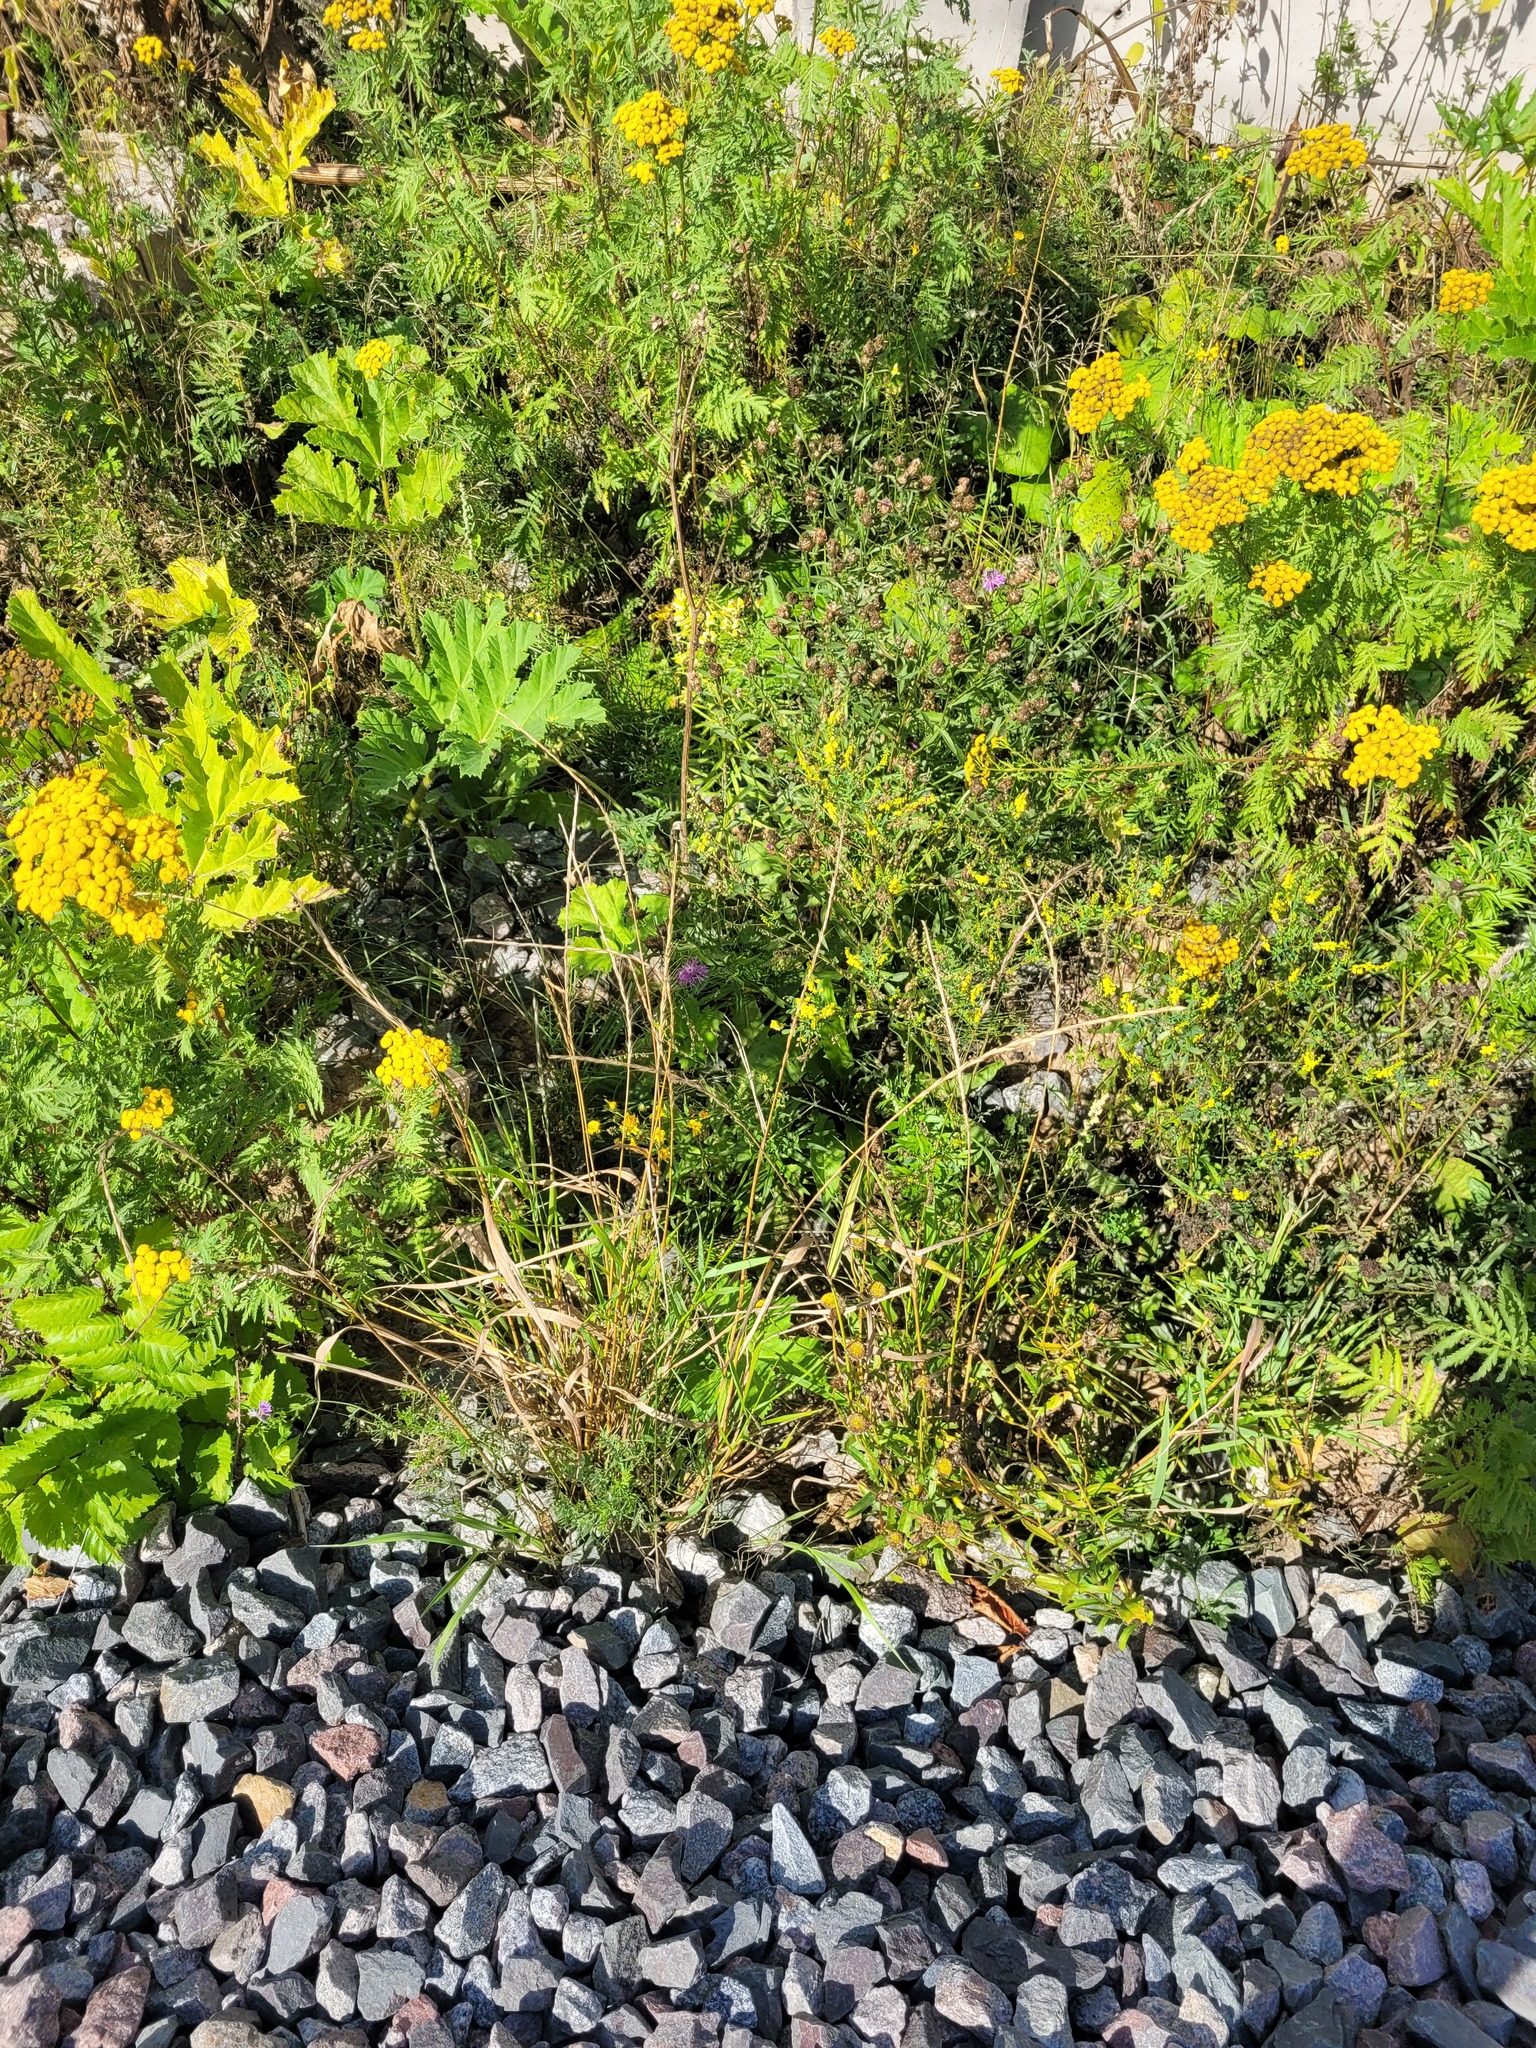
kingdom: Plantae
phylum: Tracheophyta
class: Liliopsida
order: Poales
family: Poaceae
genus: Elymus
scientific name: Elymus caninus
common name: Bearded couch
